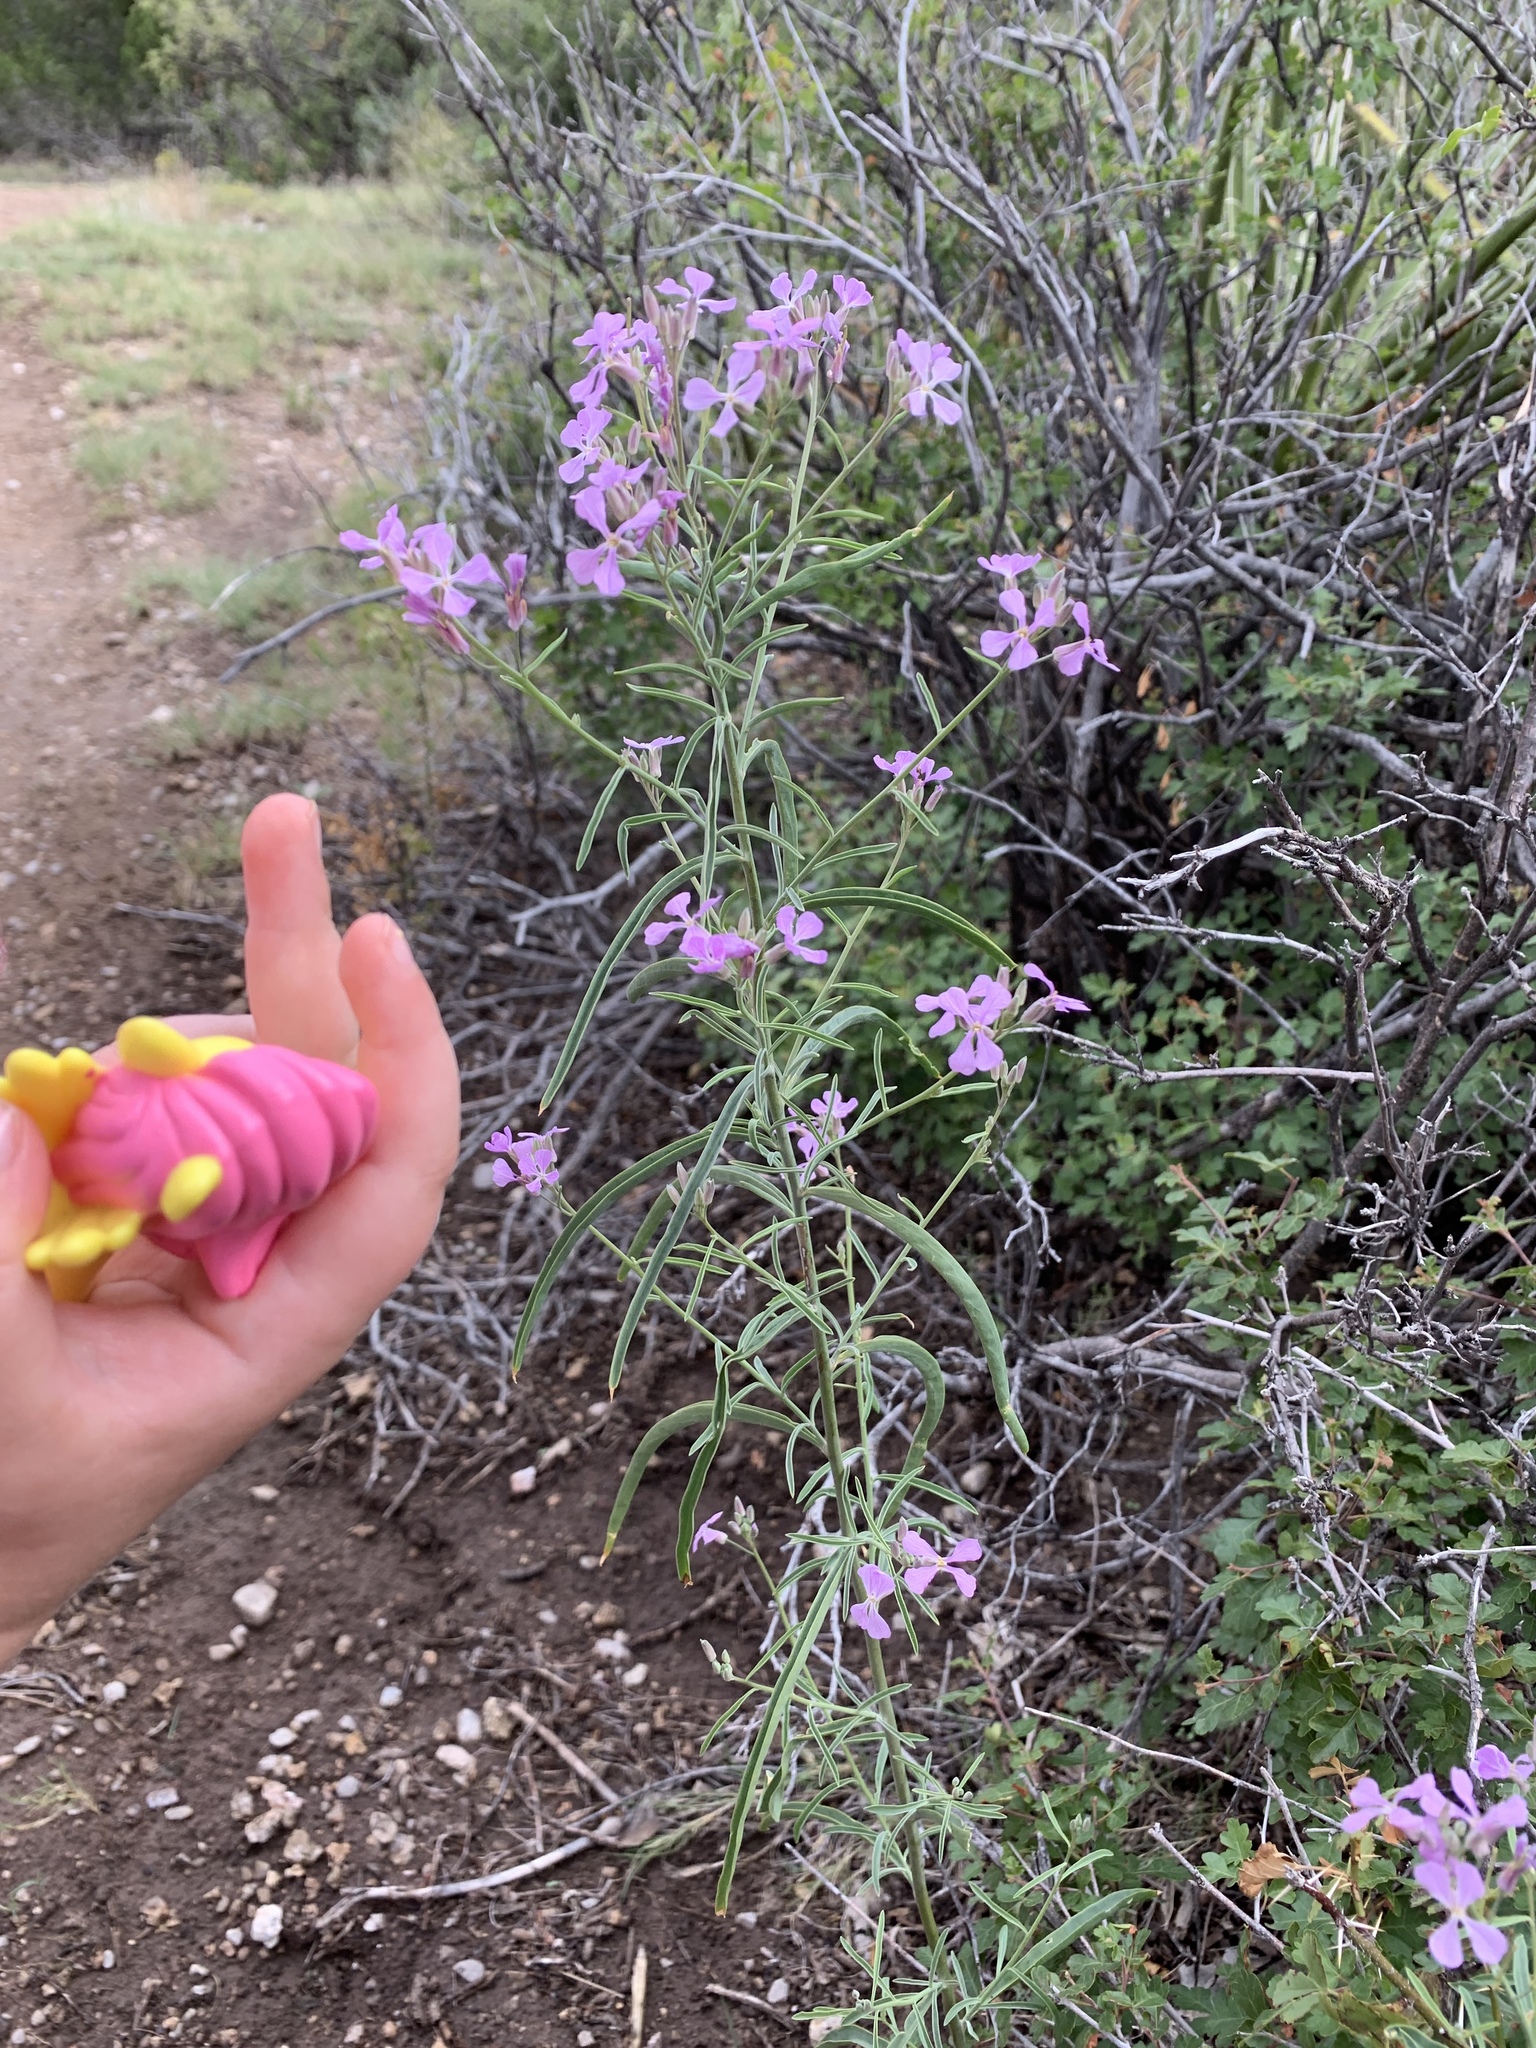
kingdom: Plantae
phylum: Tracheophyta
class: Magnoliopsida
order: Brassicales
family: Brassicaceae
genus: Hesperidanthus
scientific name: Hesperidanthus linearifolius
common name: Slim-leaf plains mustard
